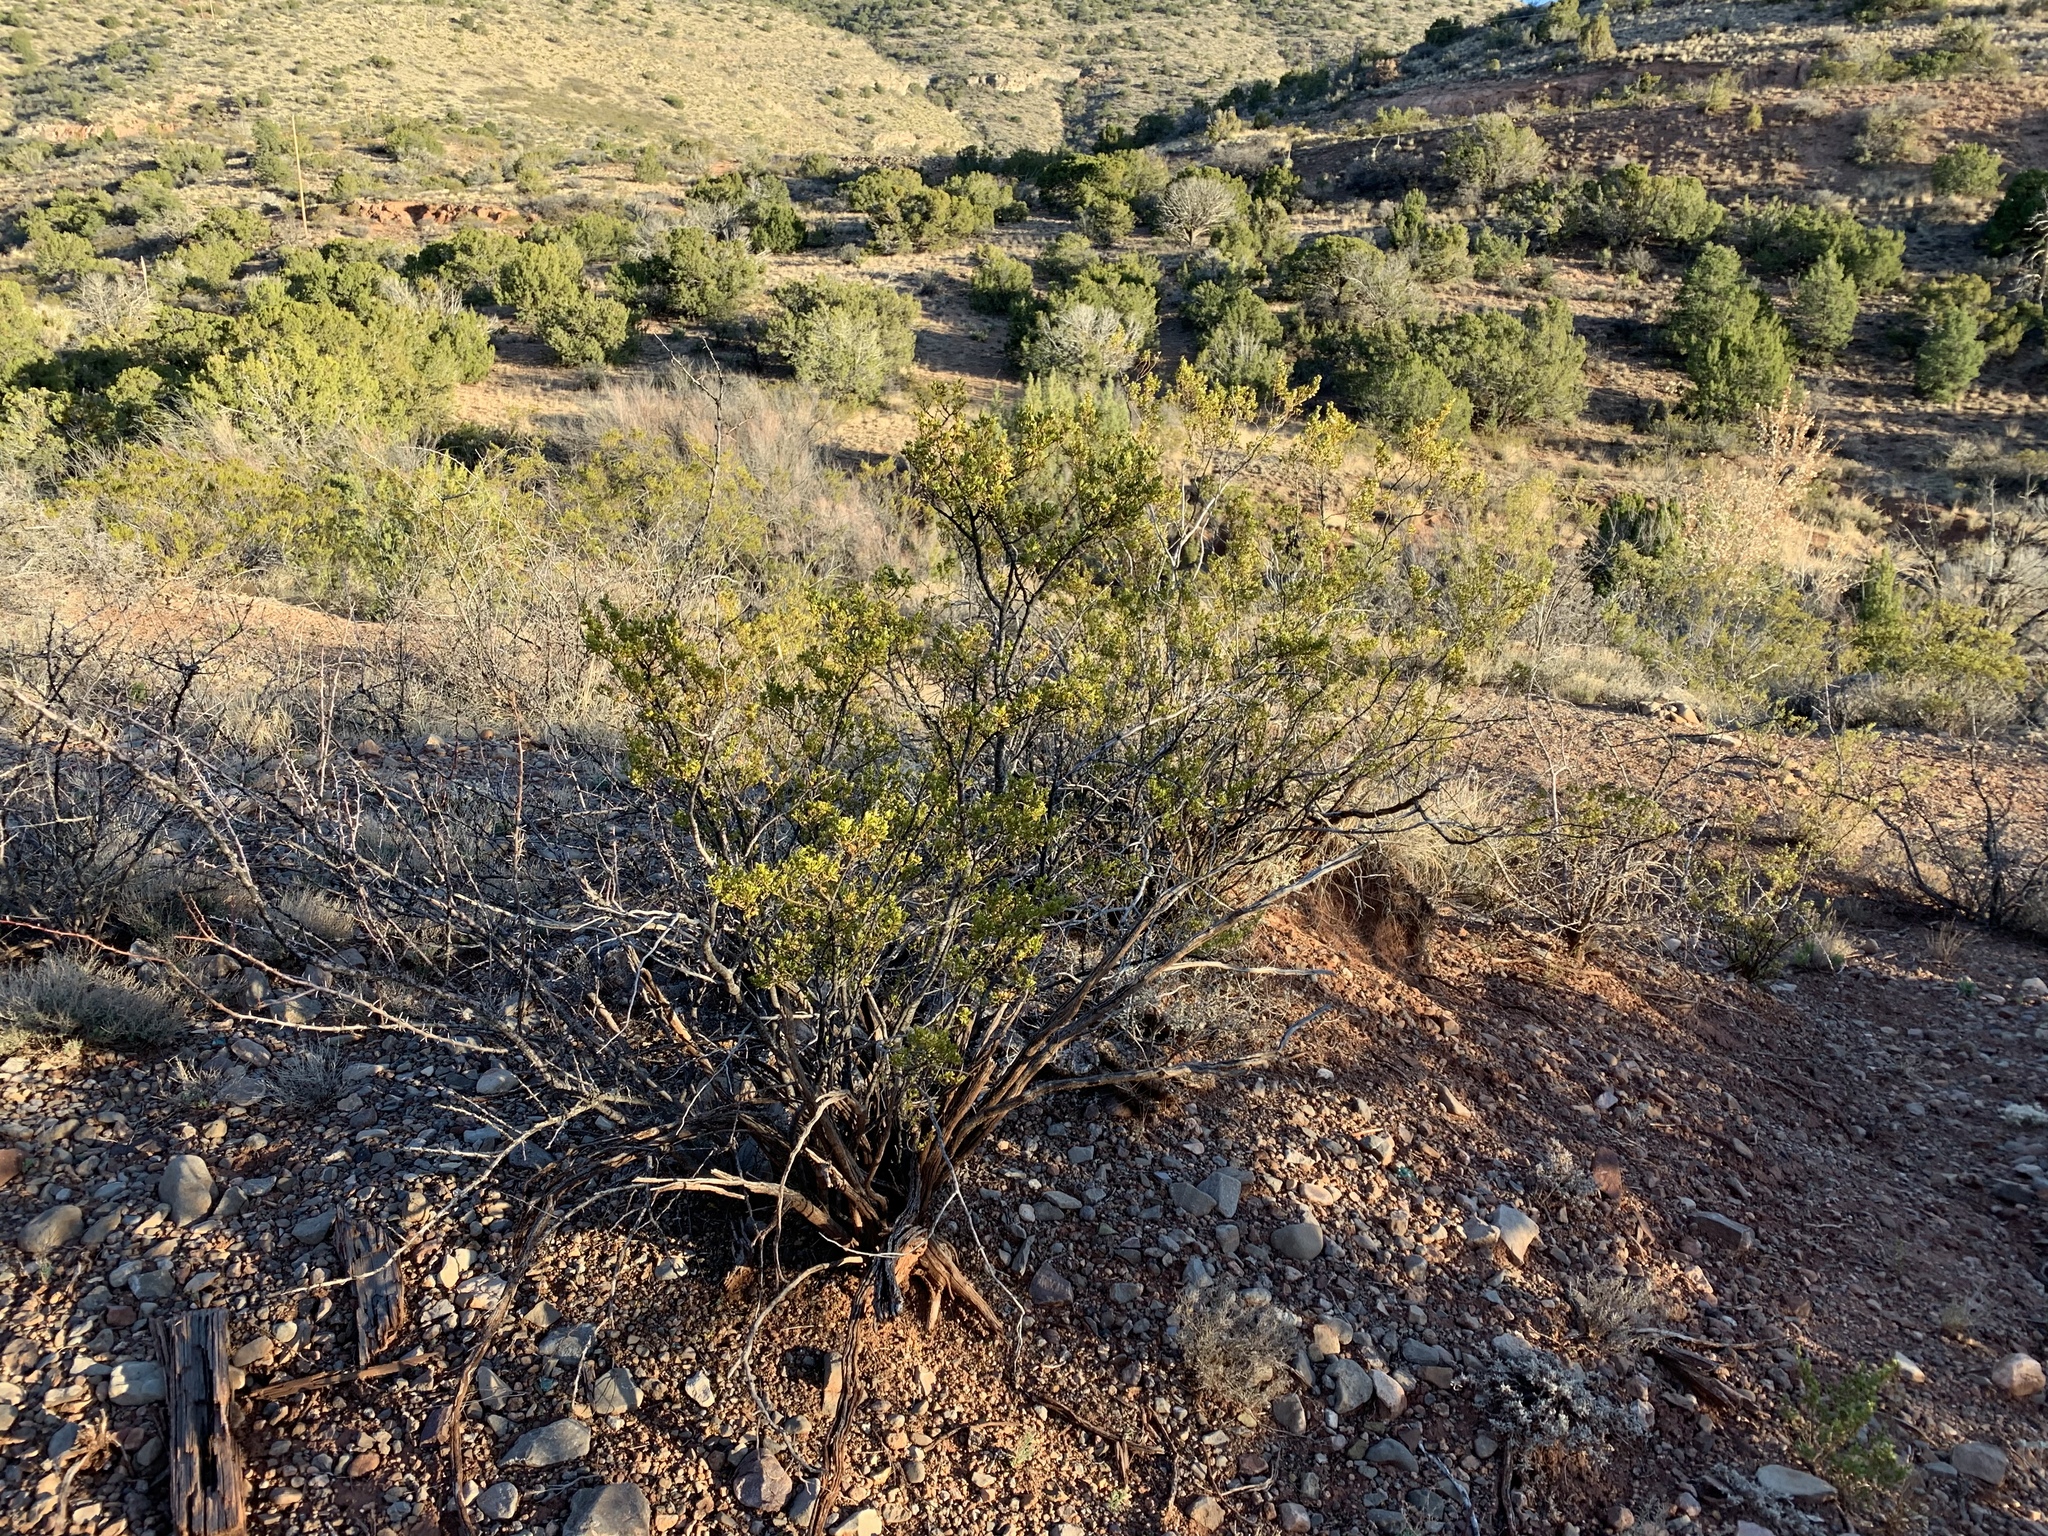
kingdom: Plantae
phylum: Tracheophyta
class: Magnoliopsida
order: Zygophyllales
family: Zygophyllaceae
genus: Larrea
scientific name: Larrea tridentata
